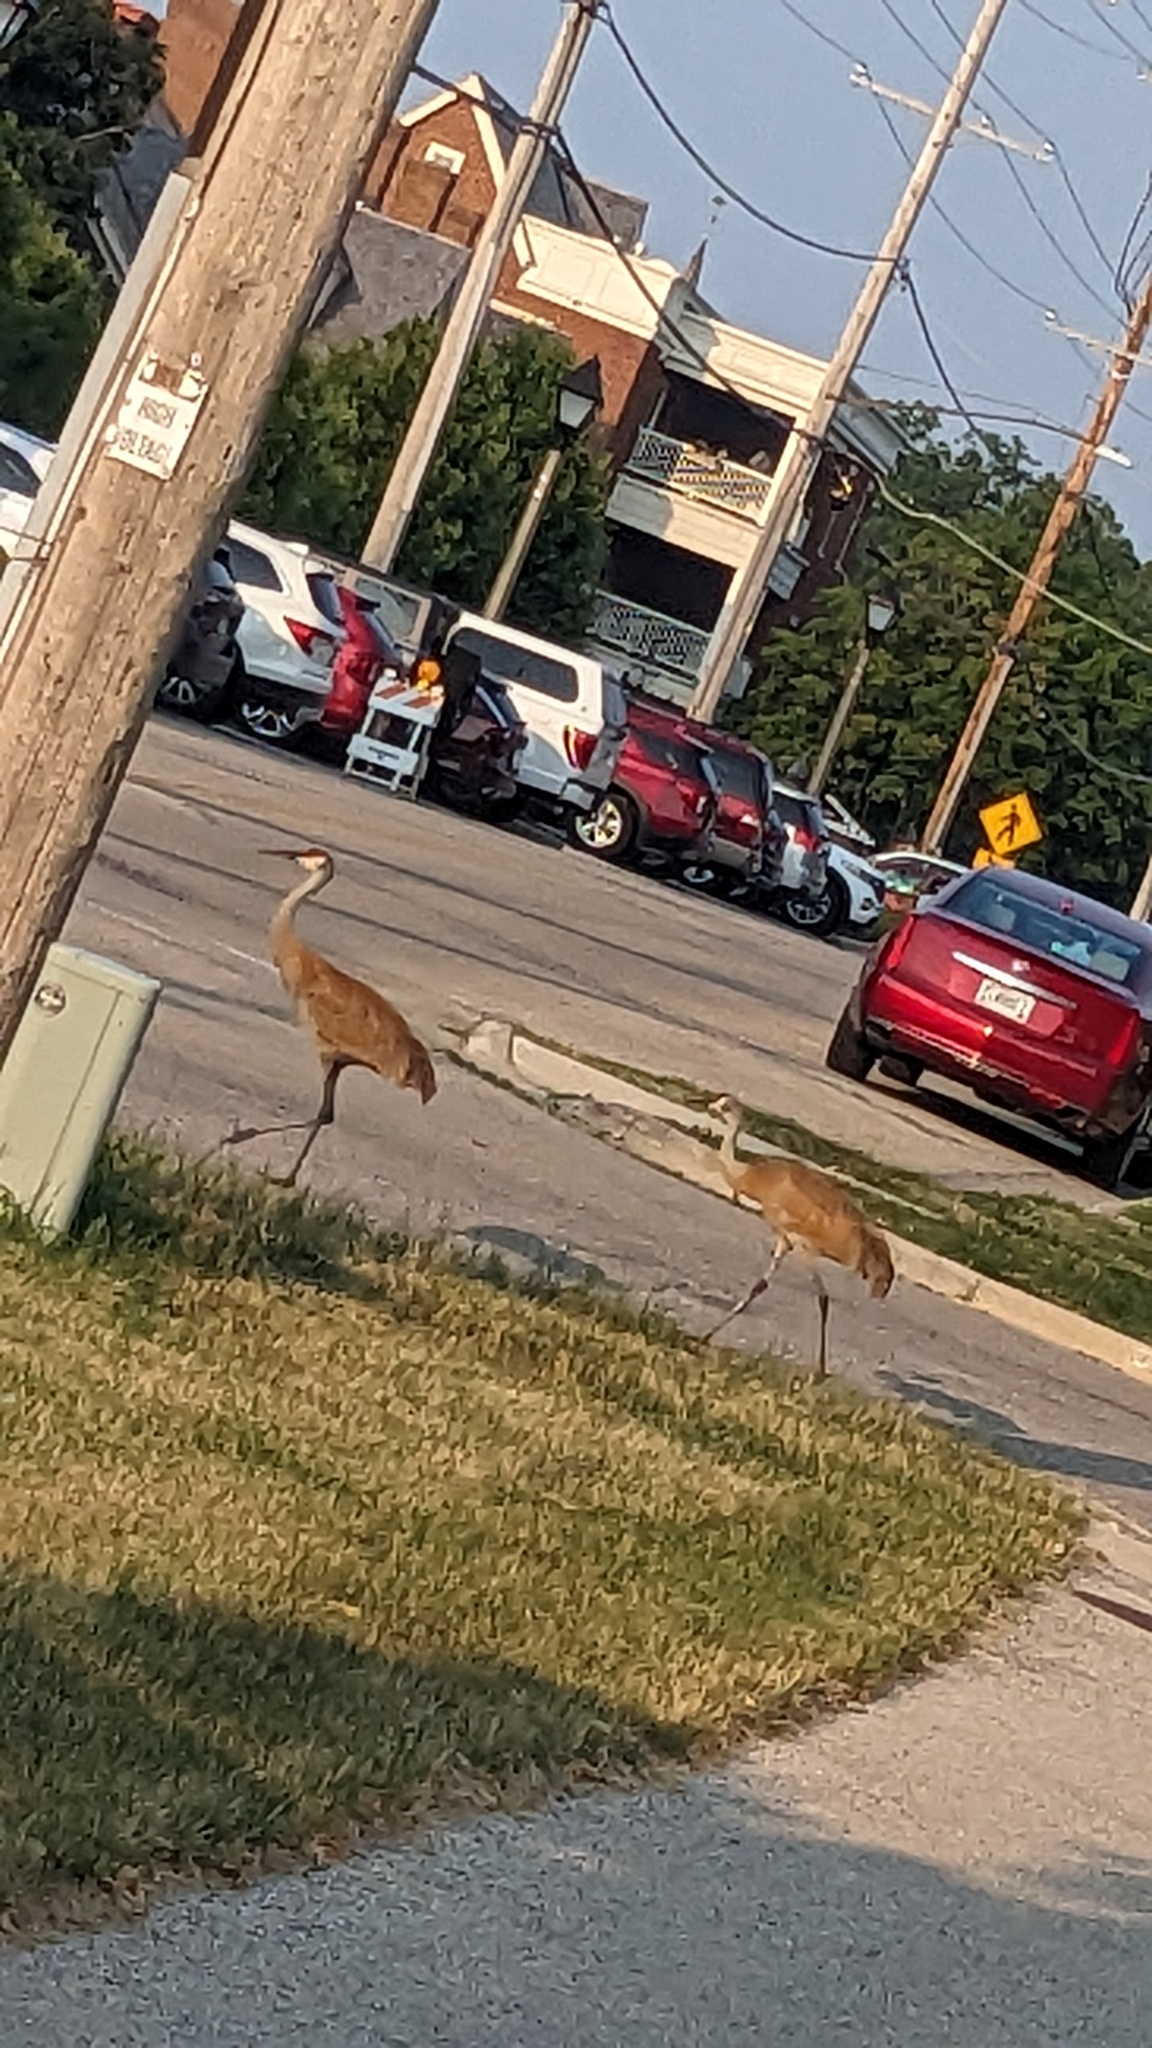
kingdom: Animalia
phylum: Chordata
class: Aves
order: Gruiformes
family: Gruidae
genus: Grus
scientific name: Grus canadensis
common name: Sandhill crane
